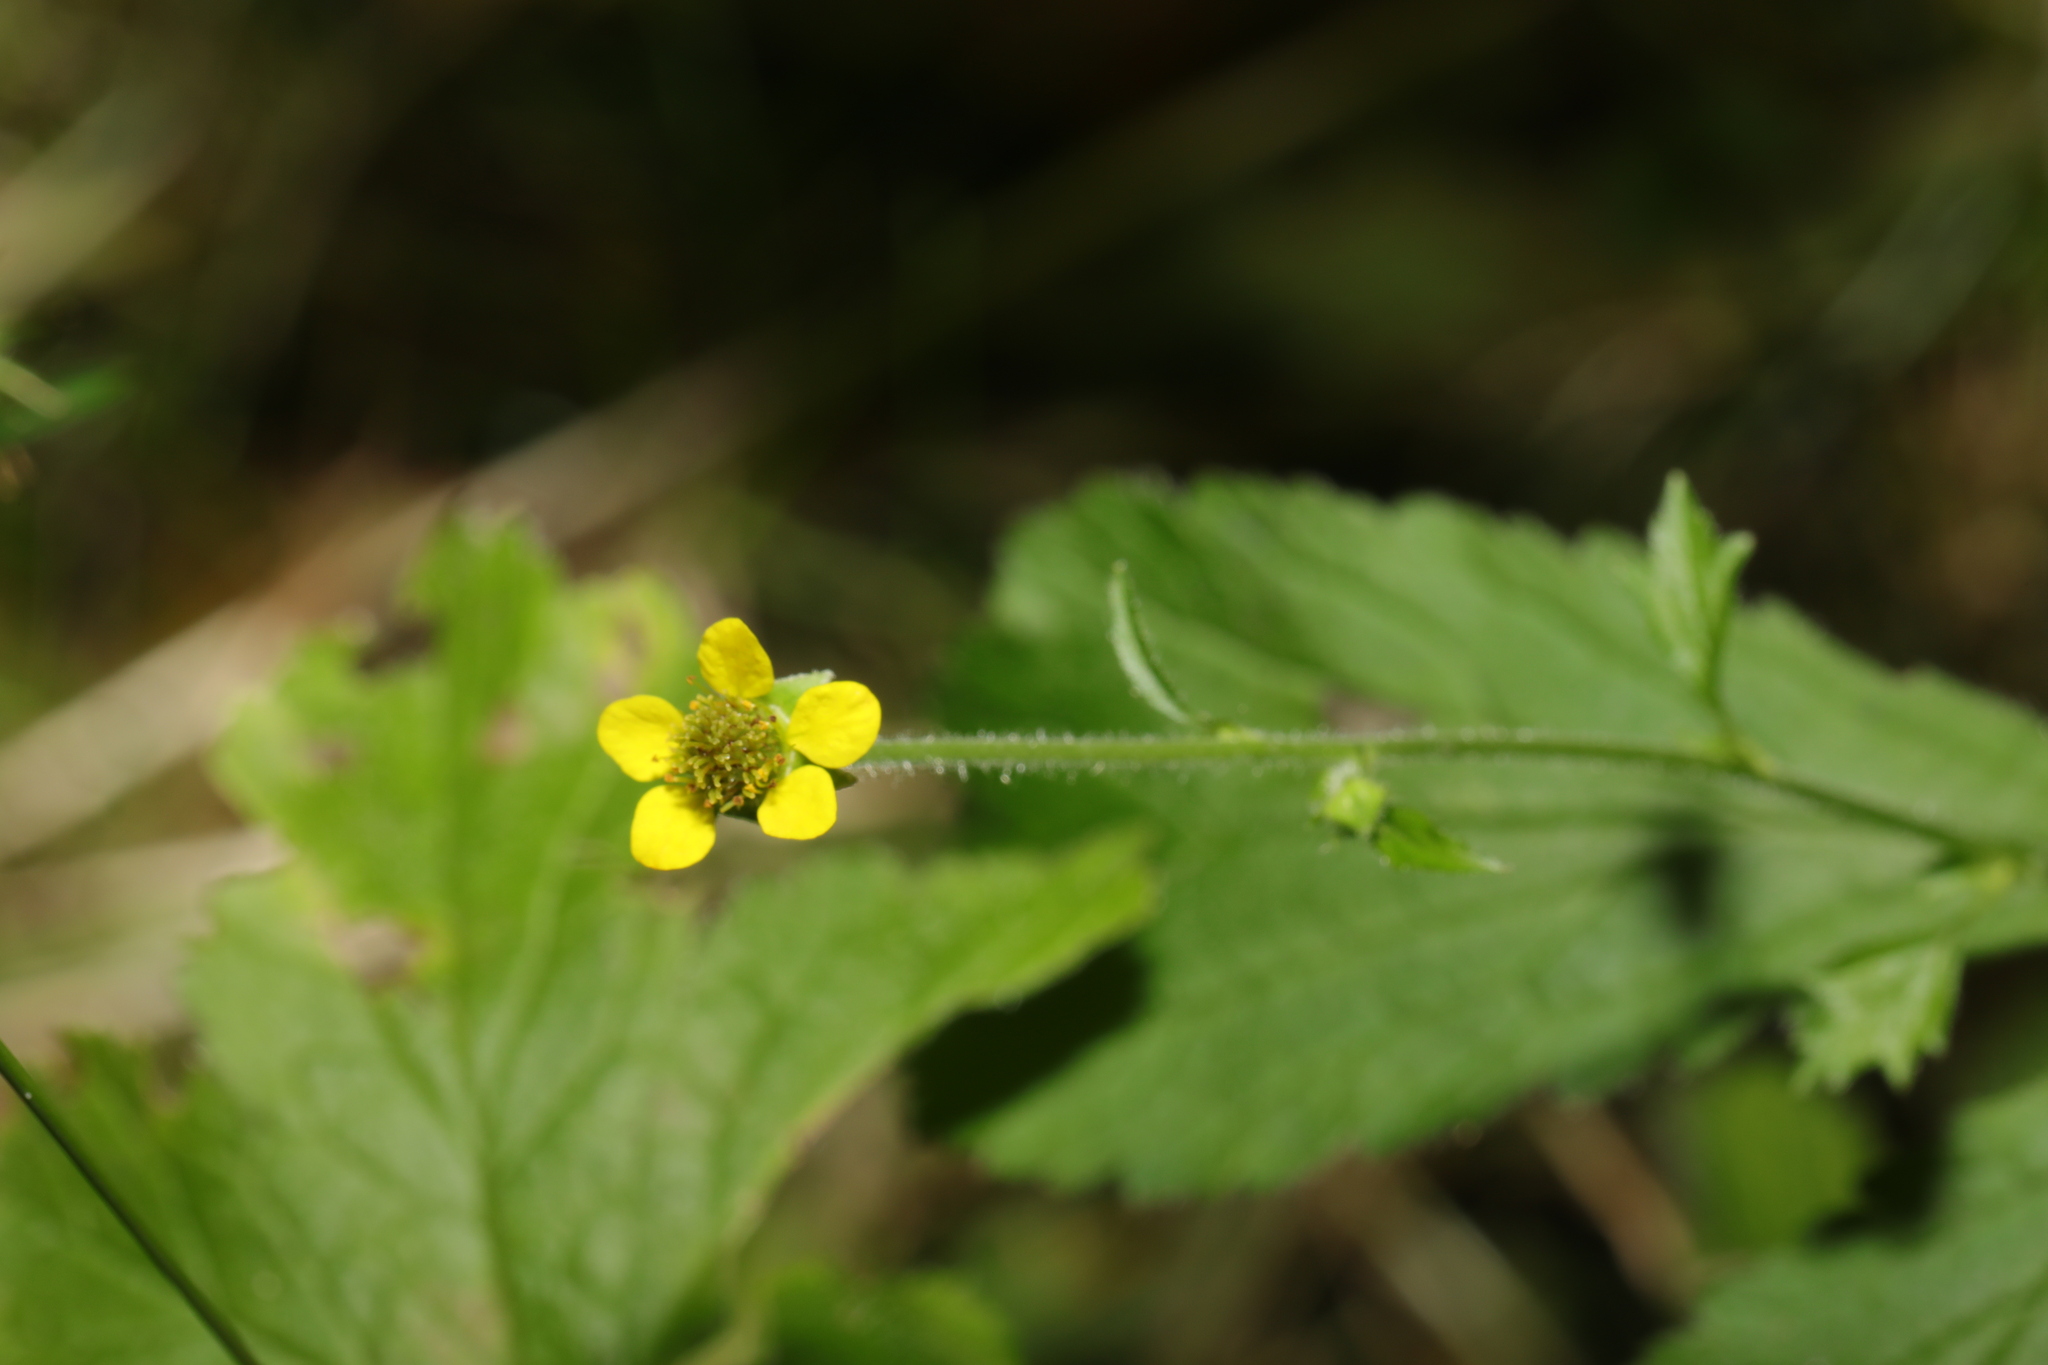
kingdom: Plantae
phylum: Tracheophyta
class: Magnoliopsida
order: Rosales
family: Rosaceae
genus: Geum
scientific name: Geum urbanum
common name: Wood avens
